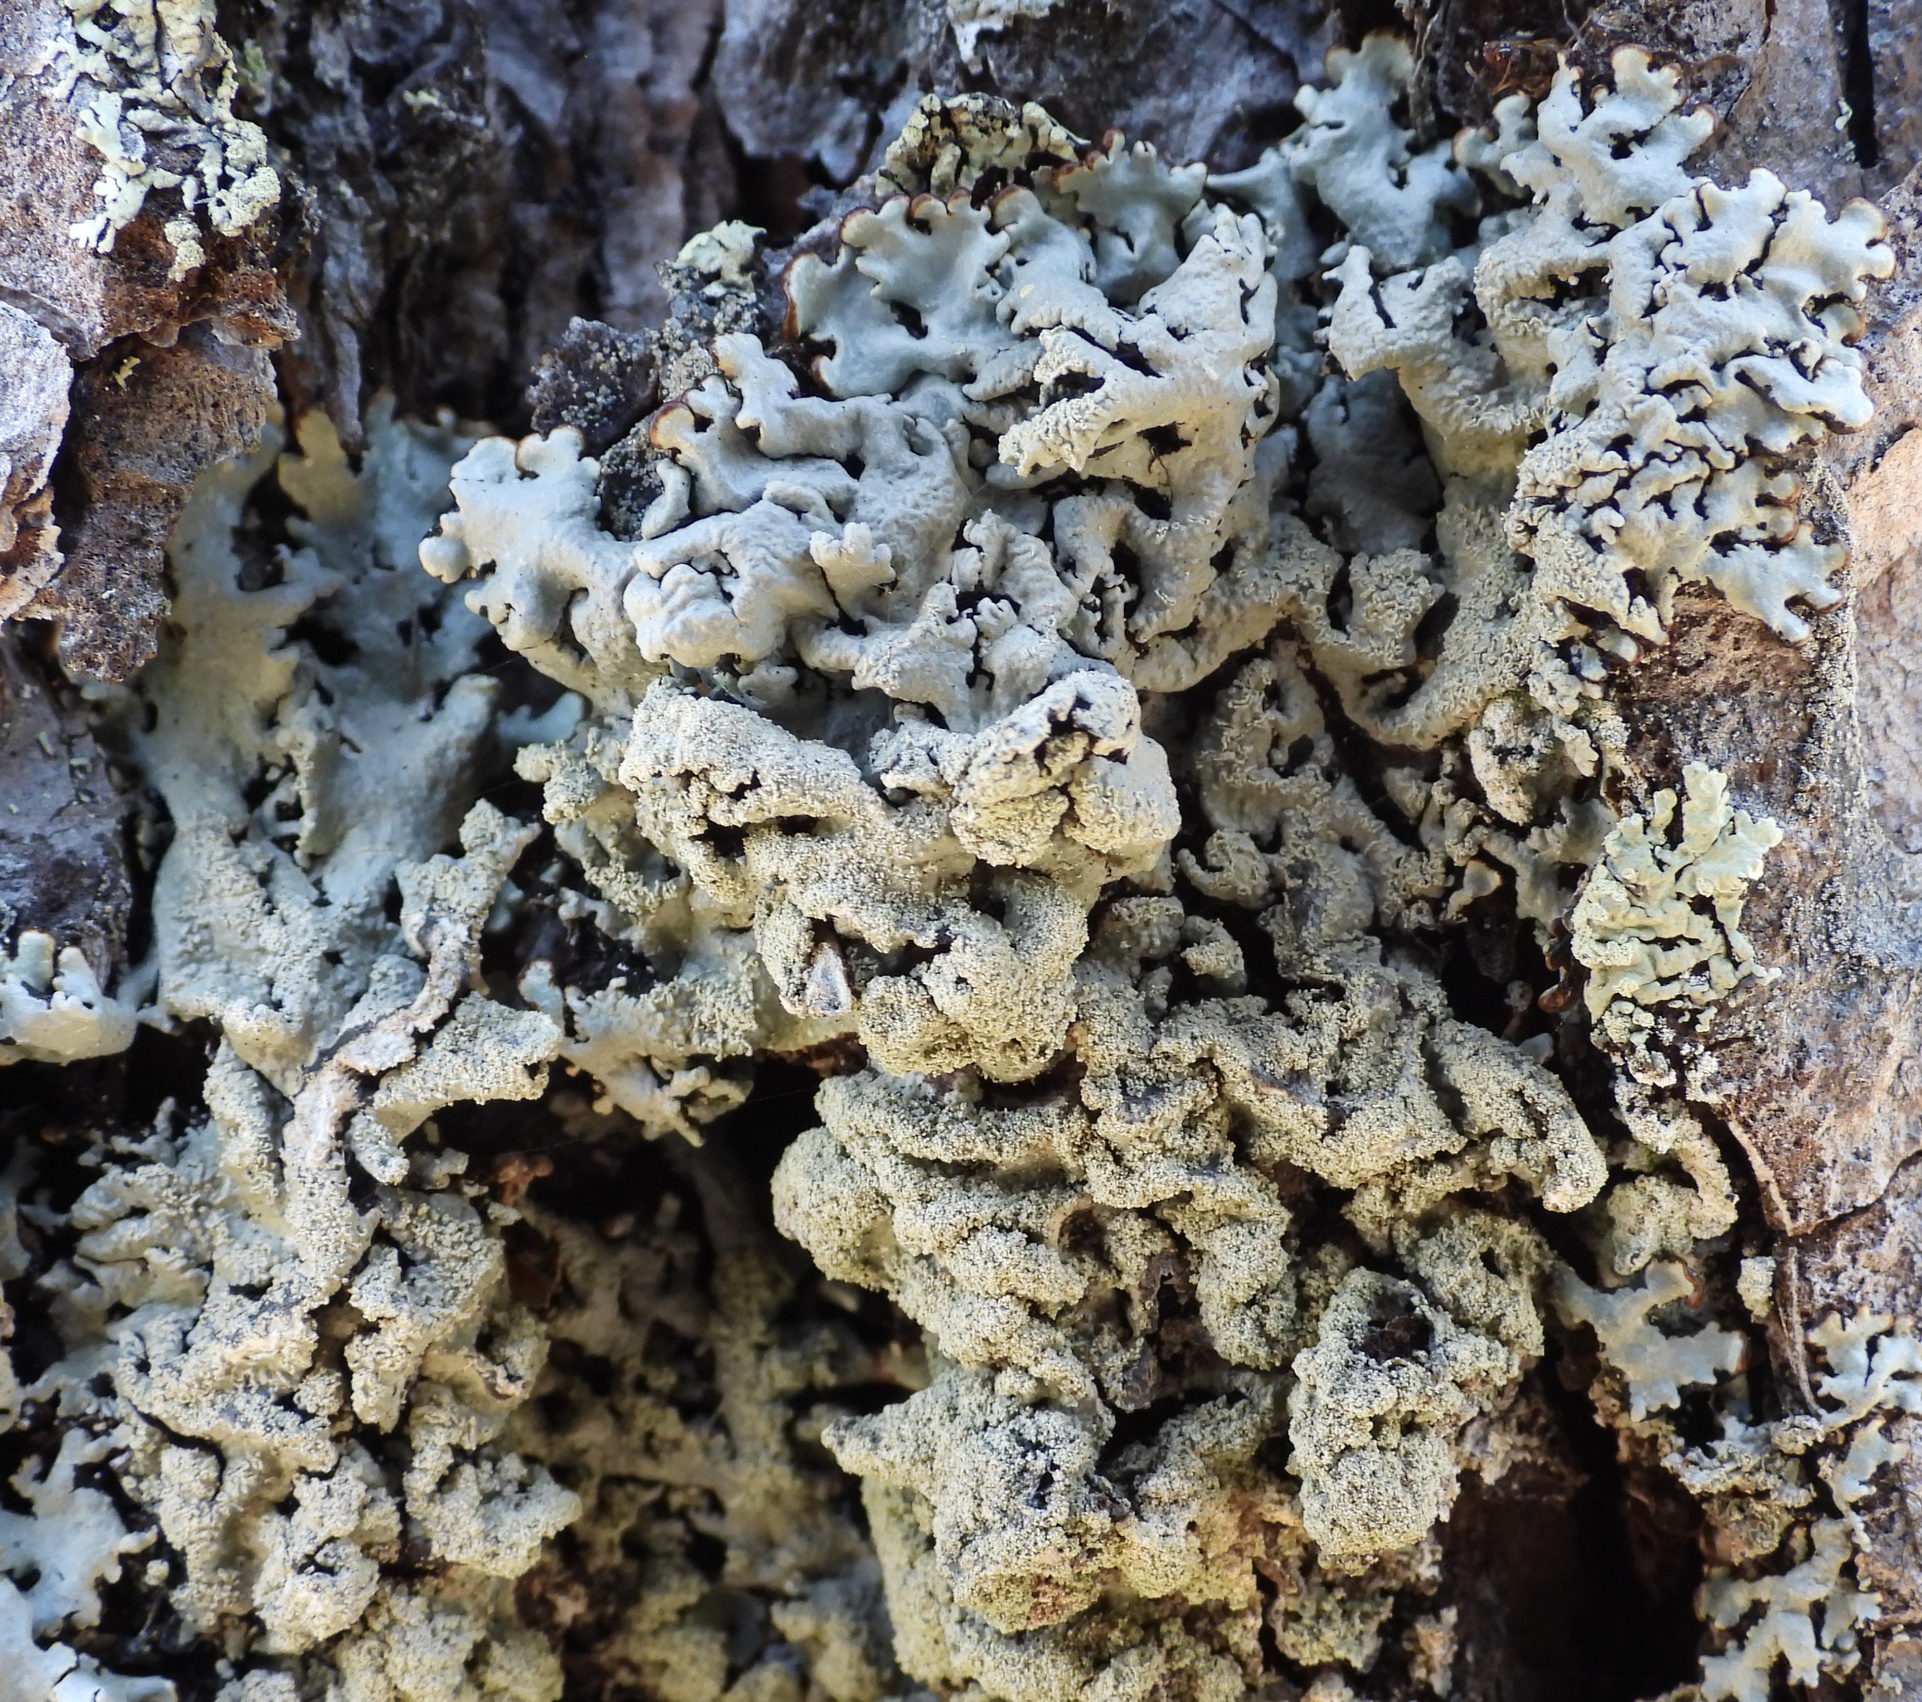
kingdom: Fungi
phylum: Ascomycota
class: Lecanoromycetes
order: Lecanorales
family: Parmeliaceae
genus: Hypogymnia
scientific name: Hypogymnia farinacea
